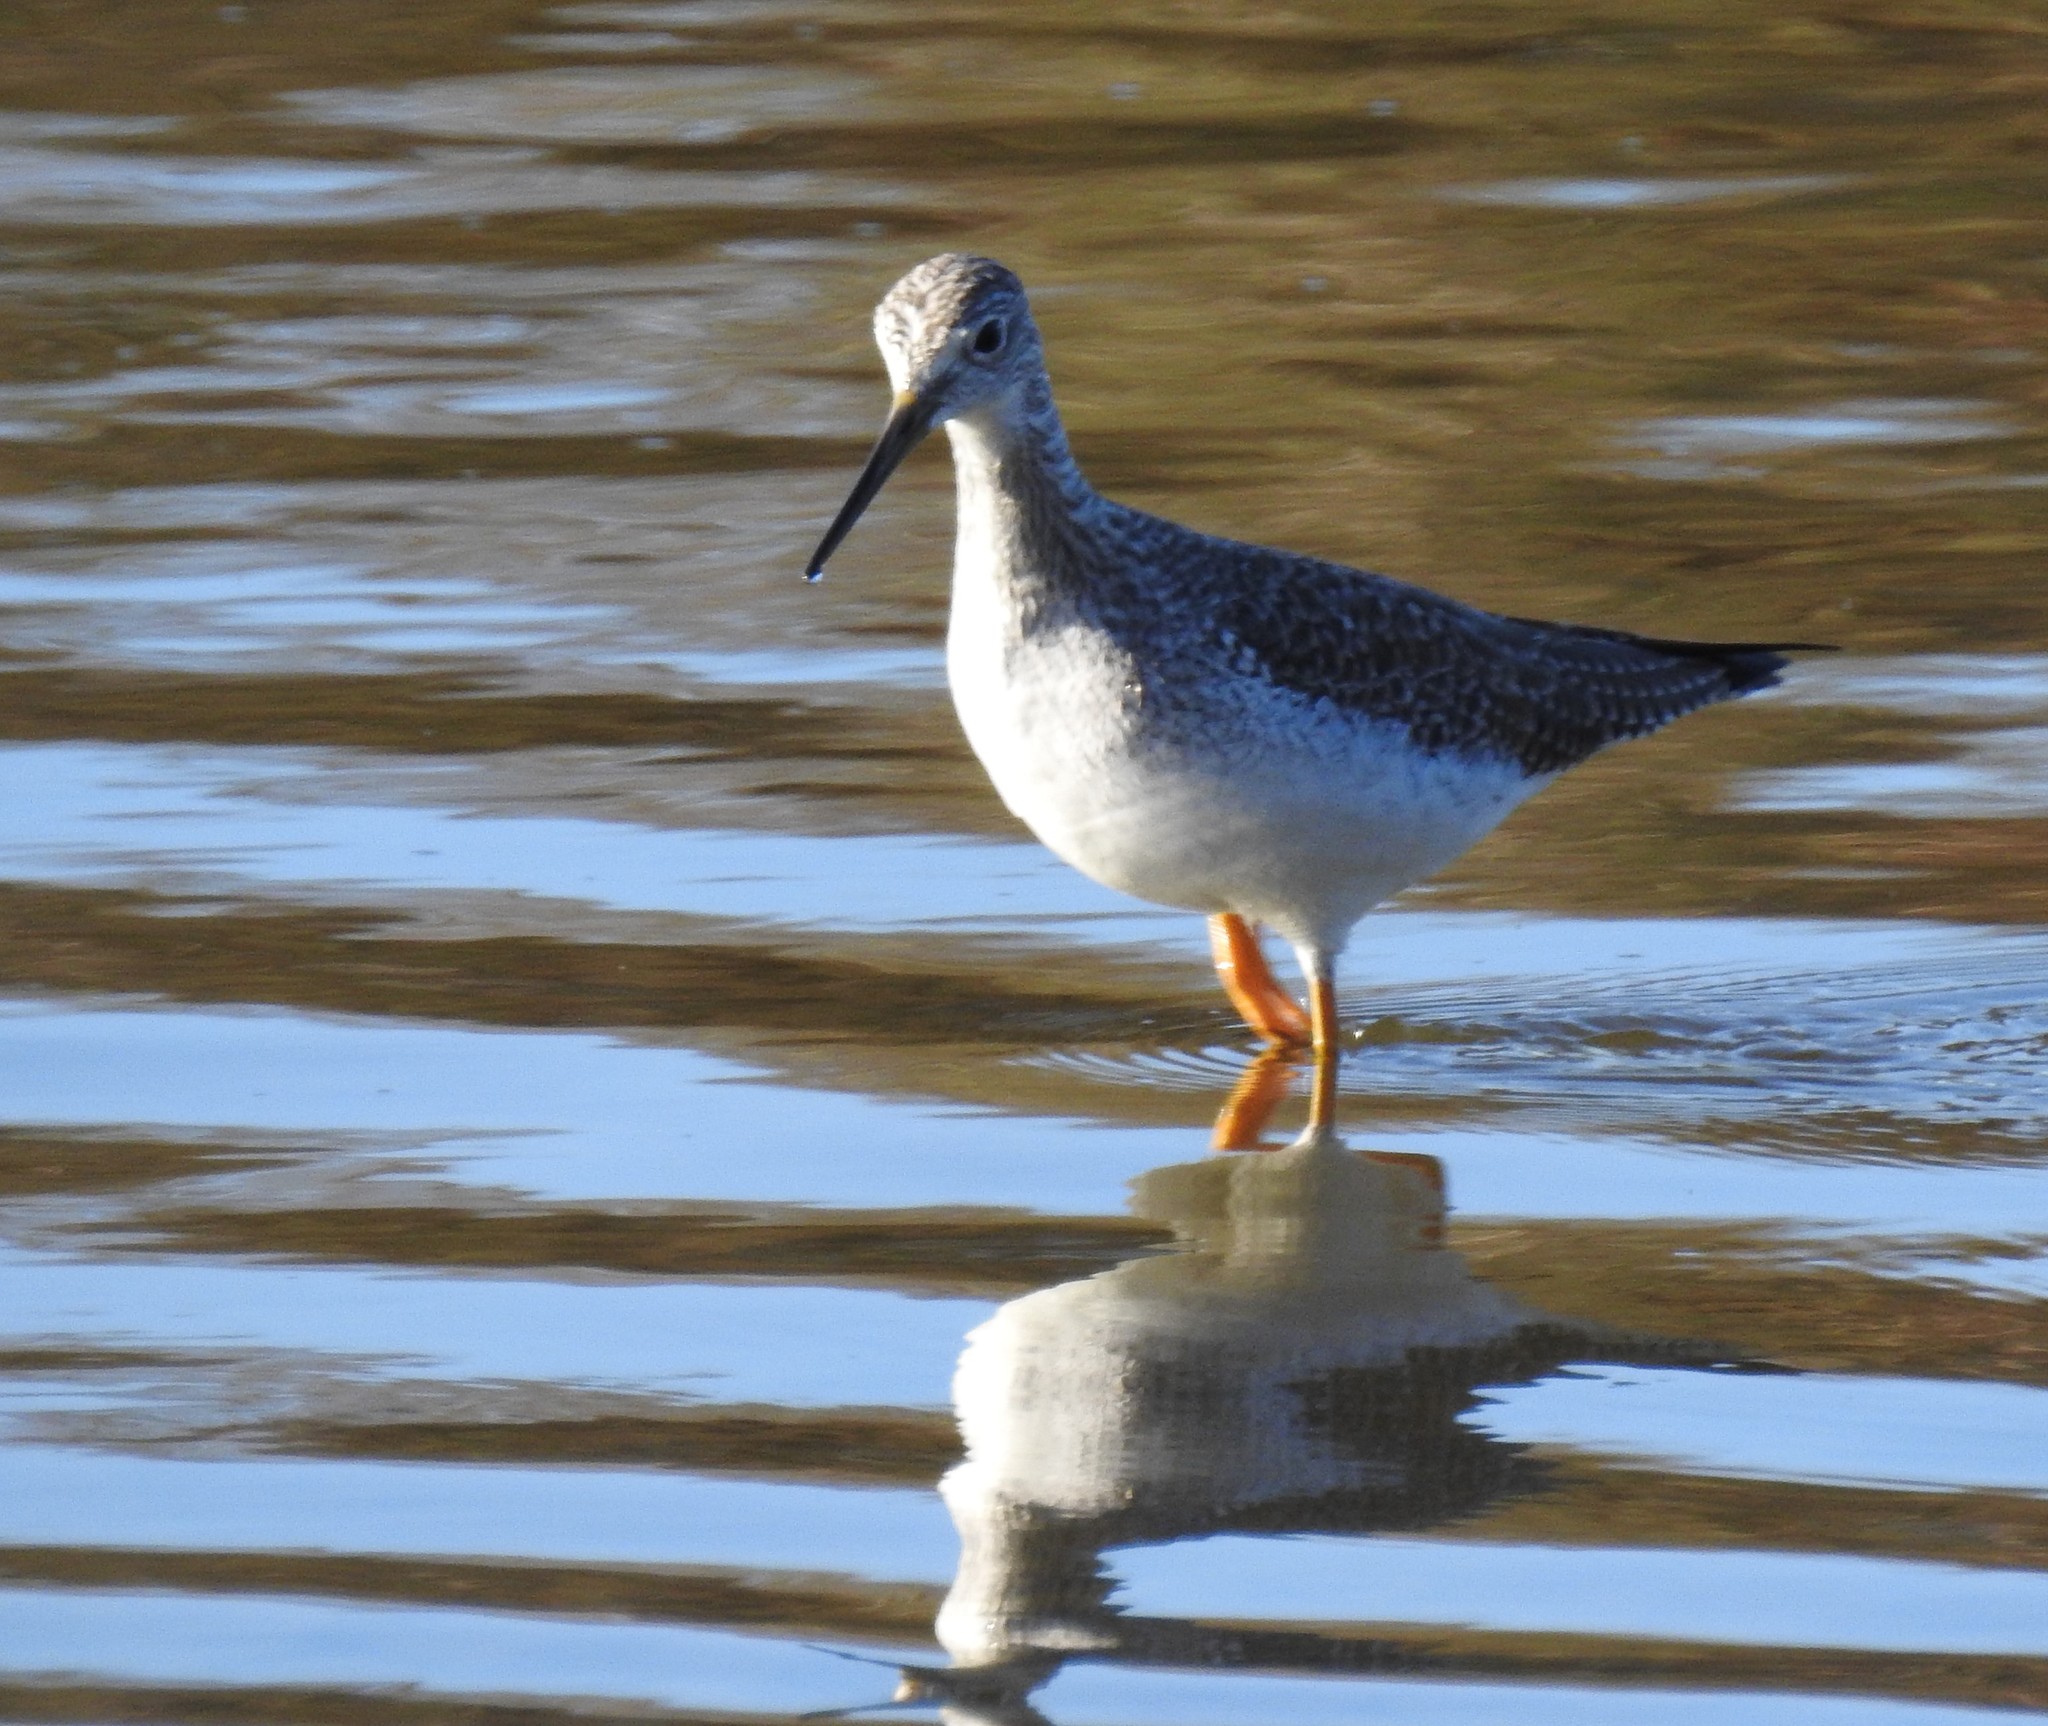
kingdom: Animalia
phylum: Chordata
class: Aves
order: Charadriiformes
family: Scolopacidae
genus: Tringa
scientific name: Tringa melanoleuca
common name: Greater yellowlegs
